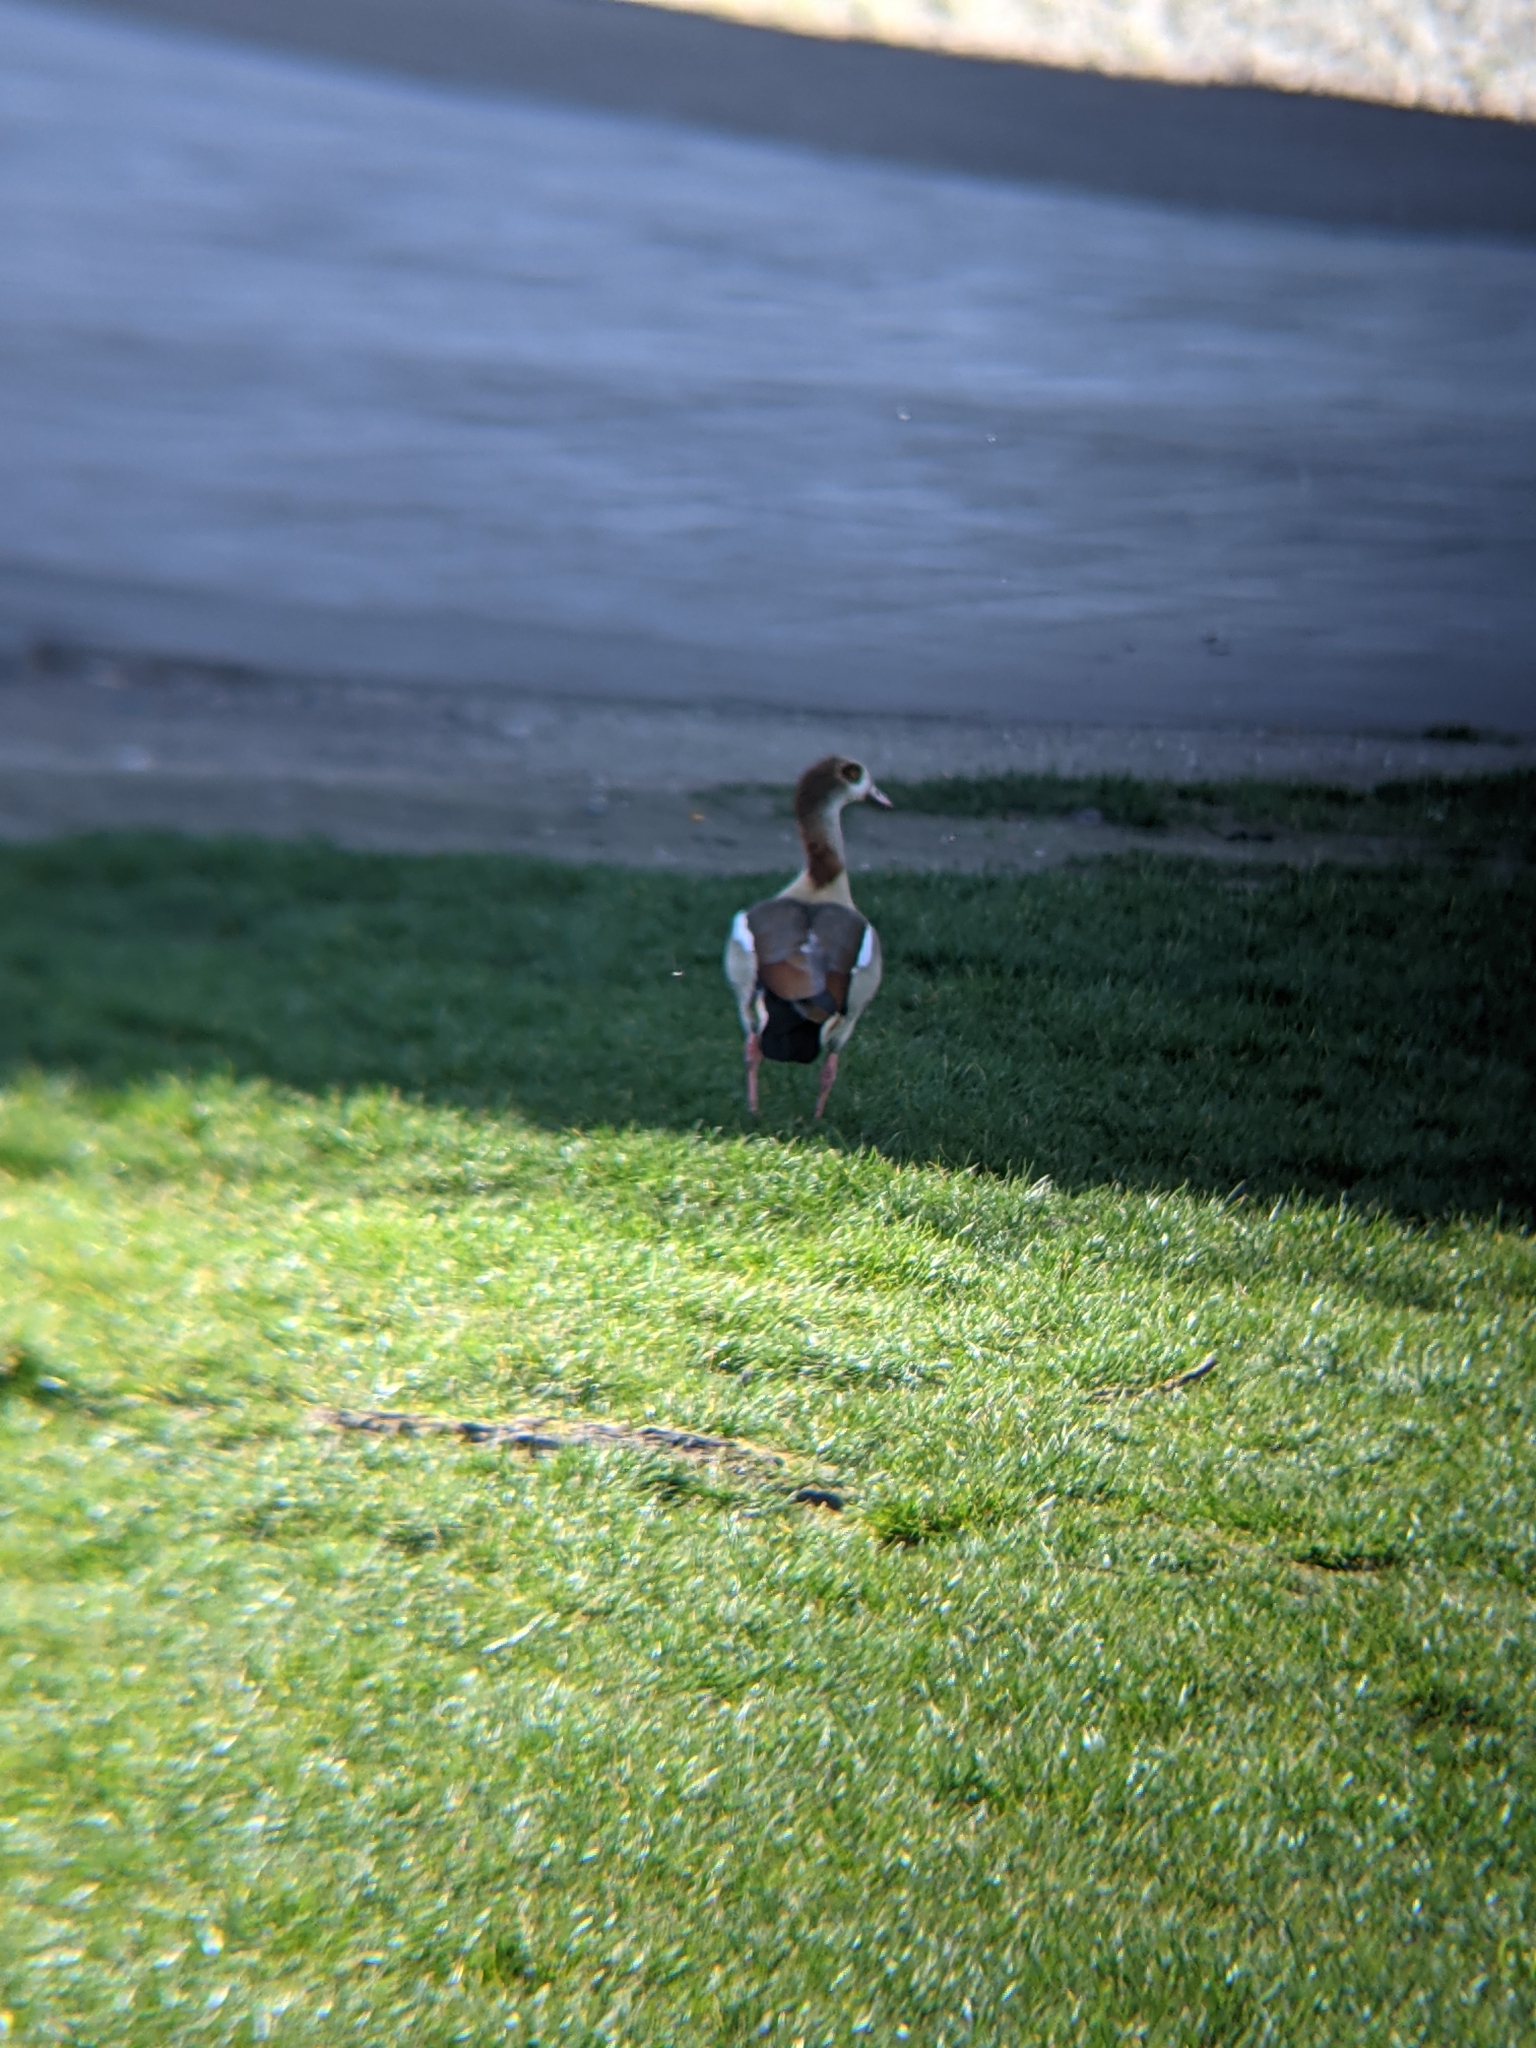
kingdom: Animalia
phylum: Chordata
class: Aves
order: Anseriformes
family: Anatidae
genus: Alopochen
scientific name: Alopochen aegyptiaca
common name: Egyptian goose
